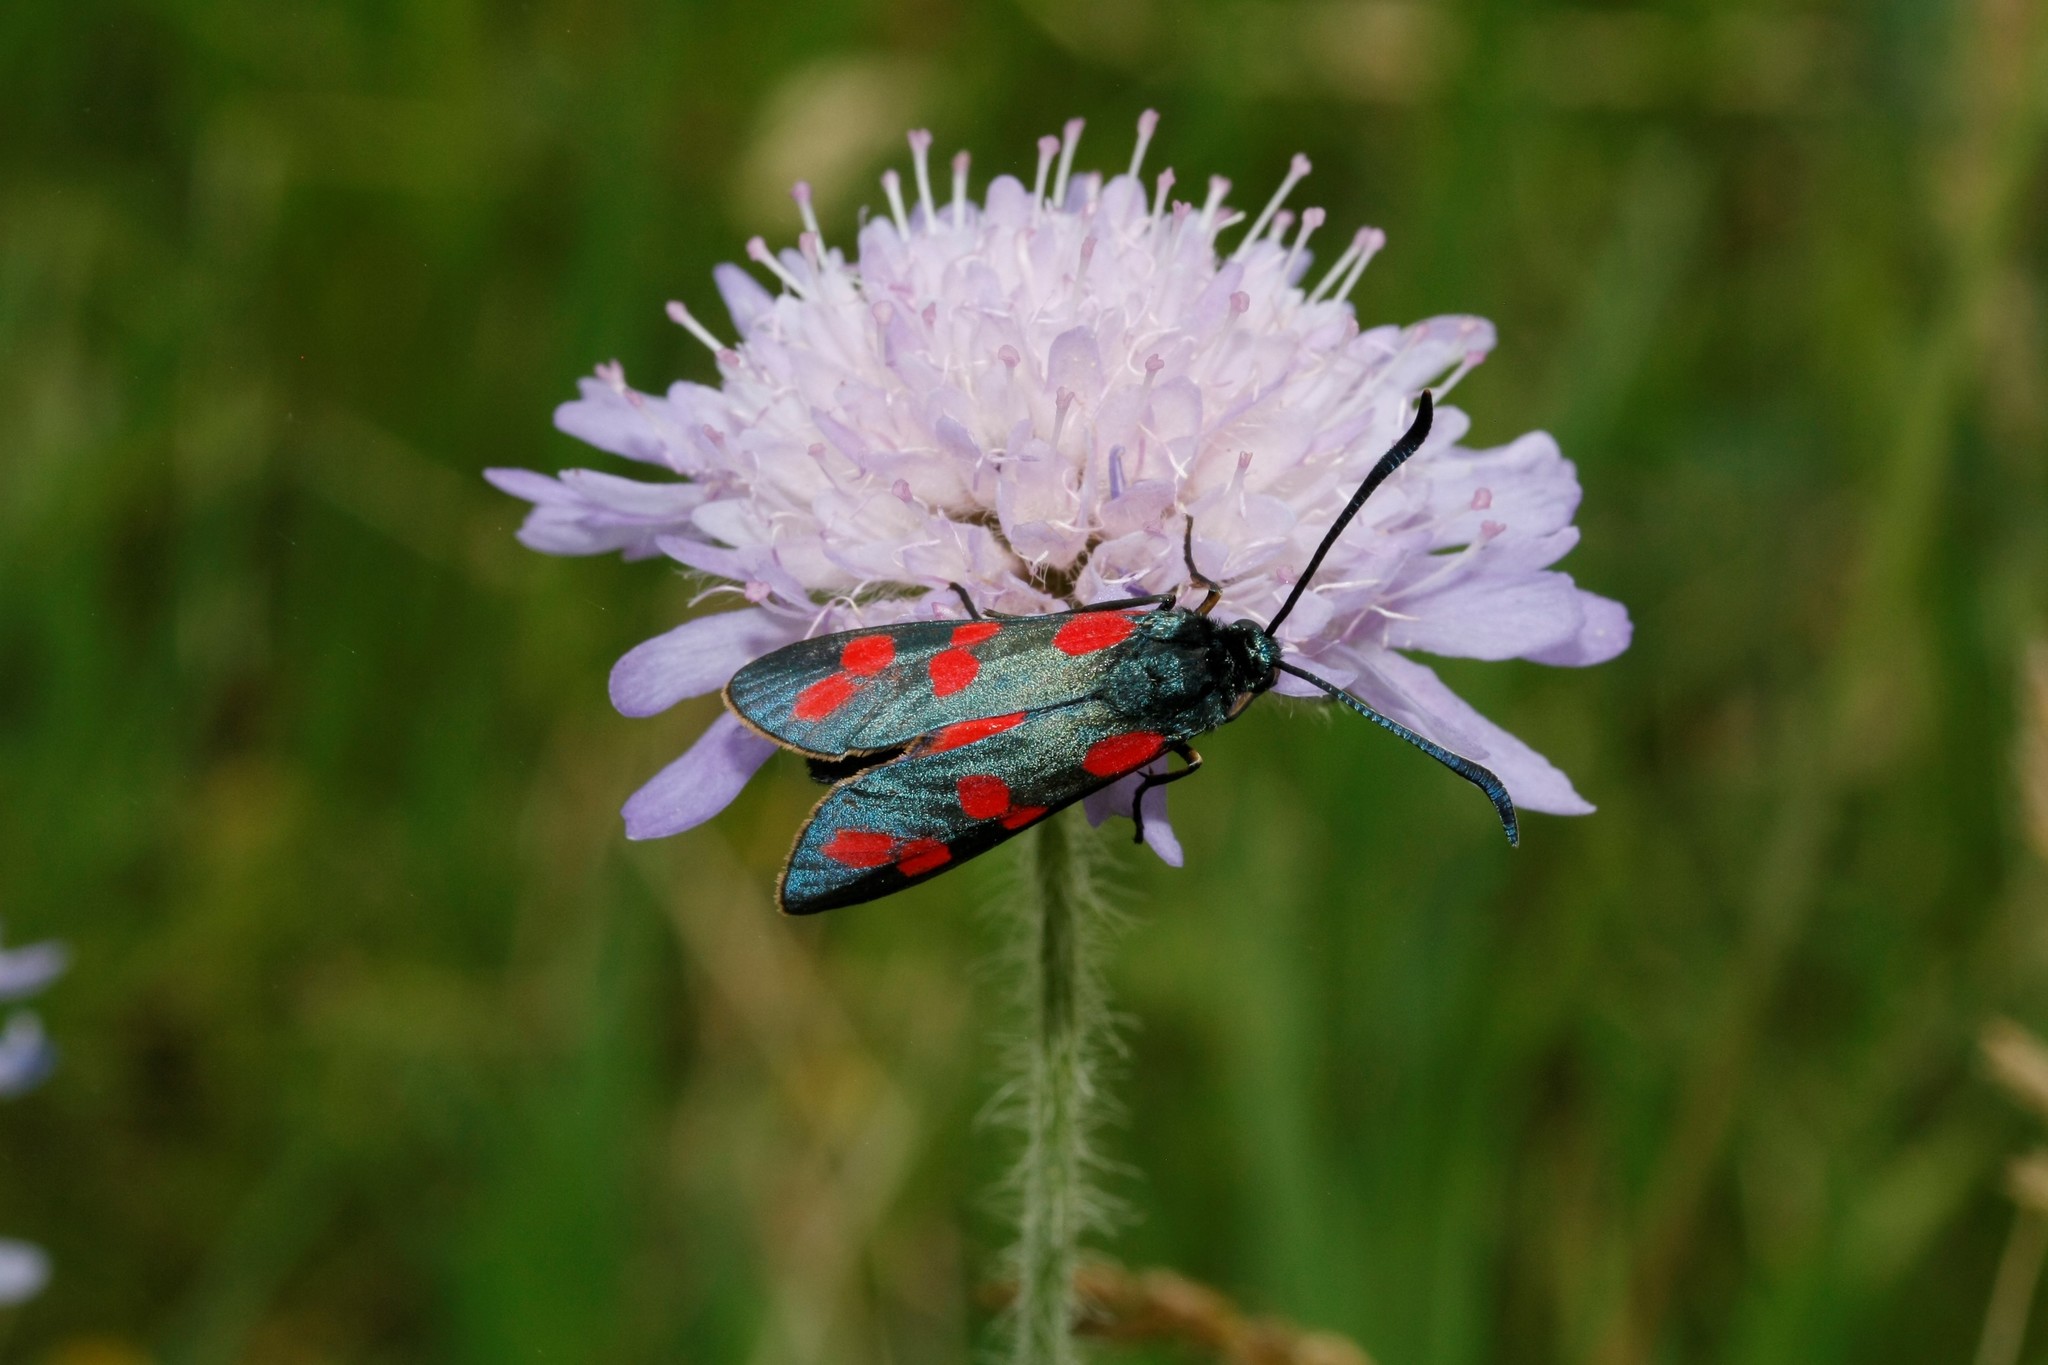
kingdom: Animalia
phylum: Arthropoda
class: Insecta
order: Lepidoptera
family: Zygaenidae
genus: Zygaena
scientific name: Zygaena filipendulae
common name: Six-spot burnet
